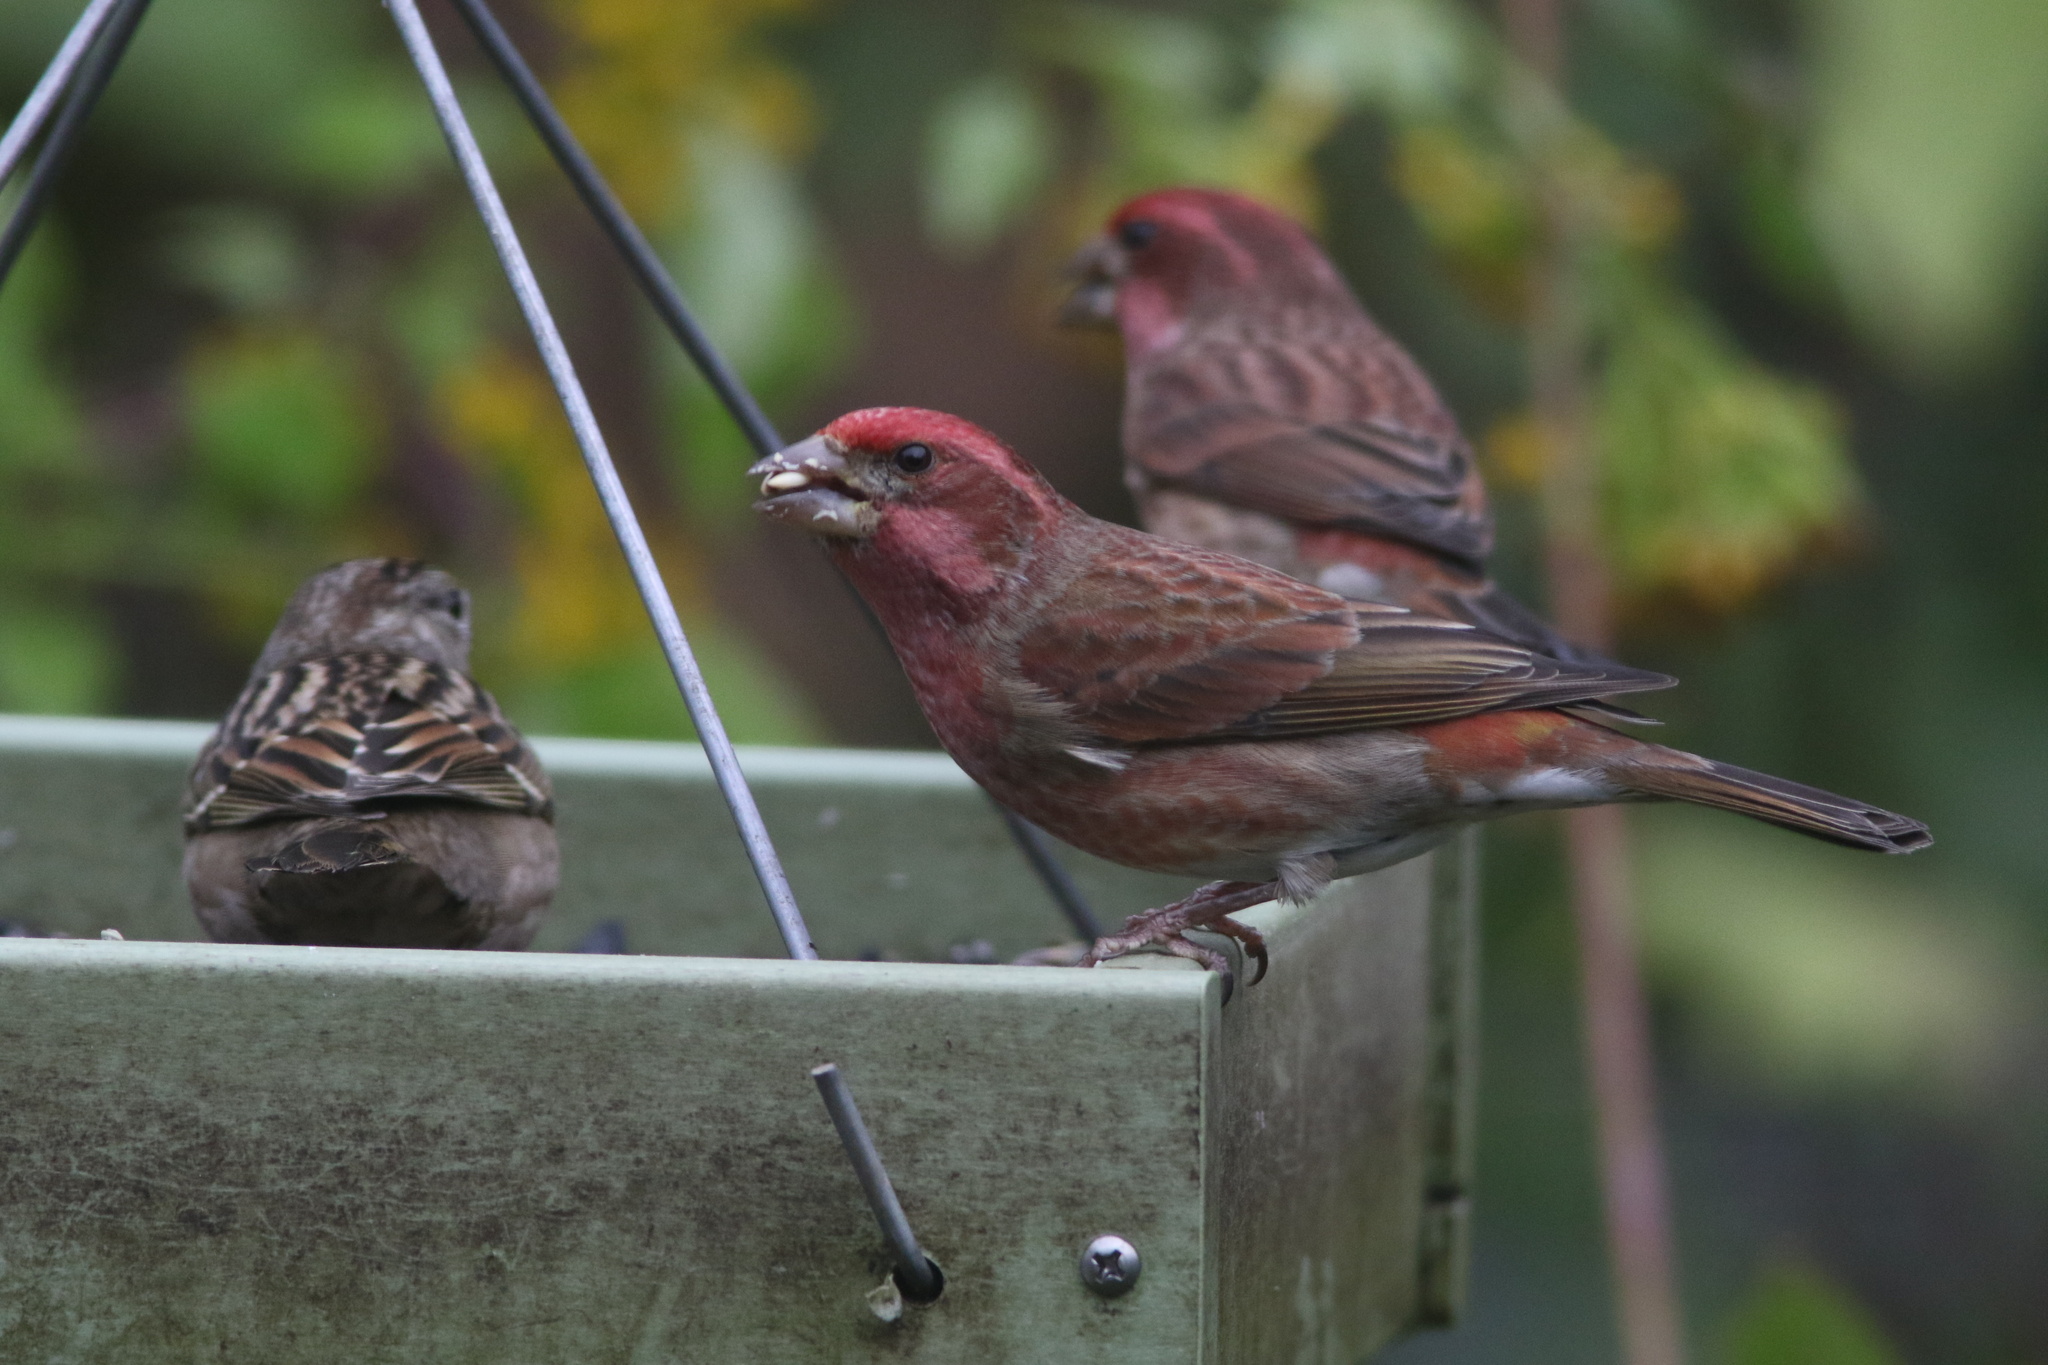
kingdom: Animalia
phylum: Chordata
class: Aves
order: Passeriformes
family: Fringillidae
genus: Haemorhous
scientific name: Haemorhous purpureus
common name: Purple finch
